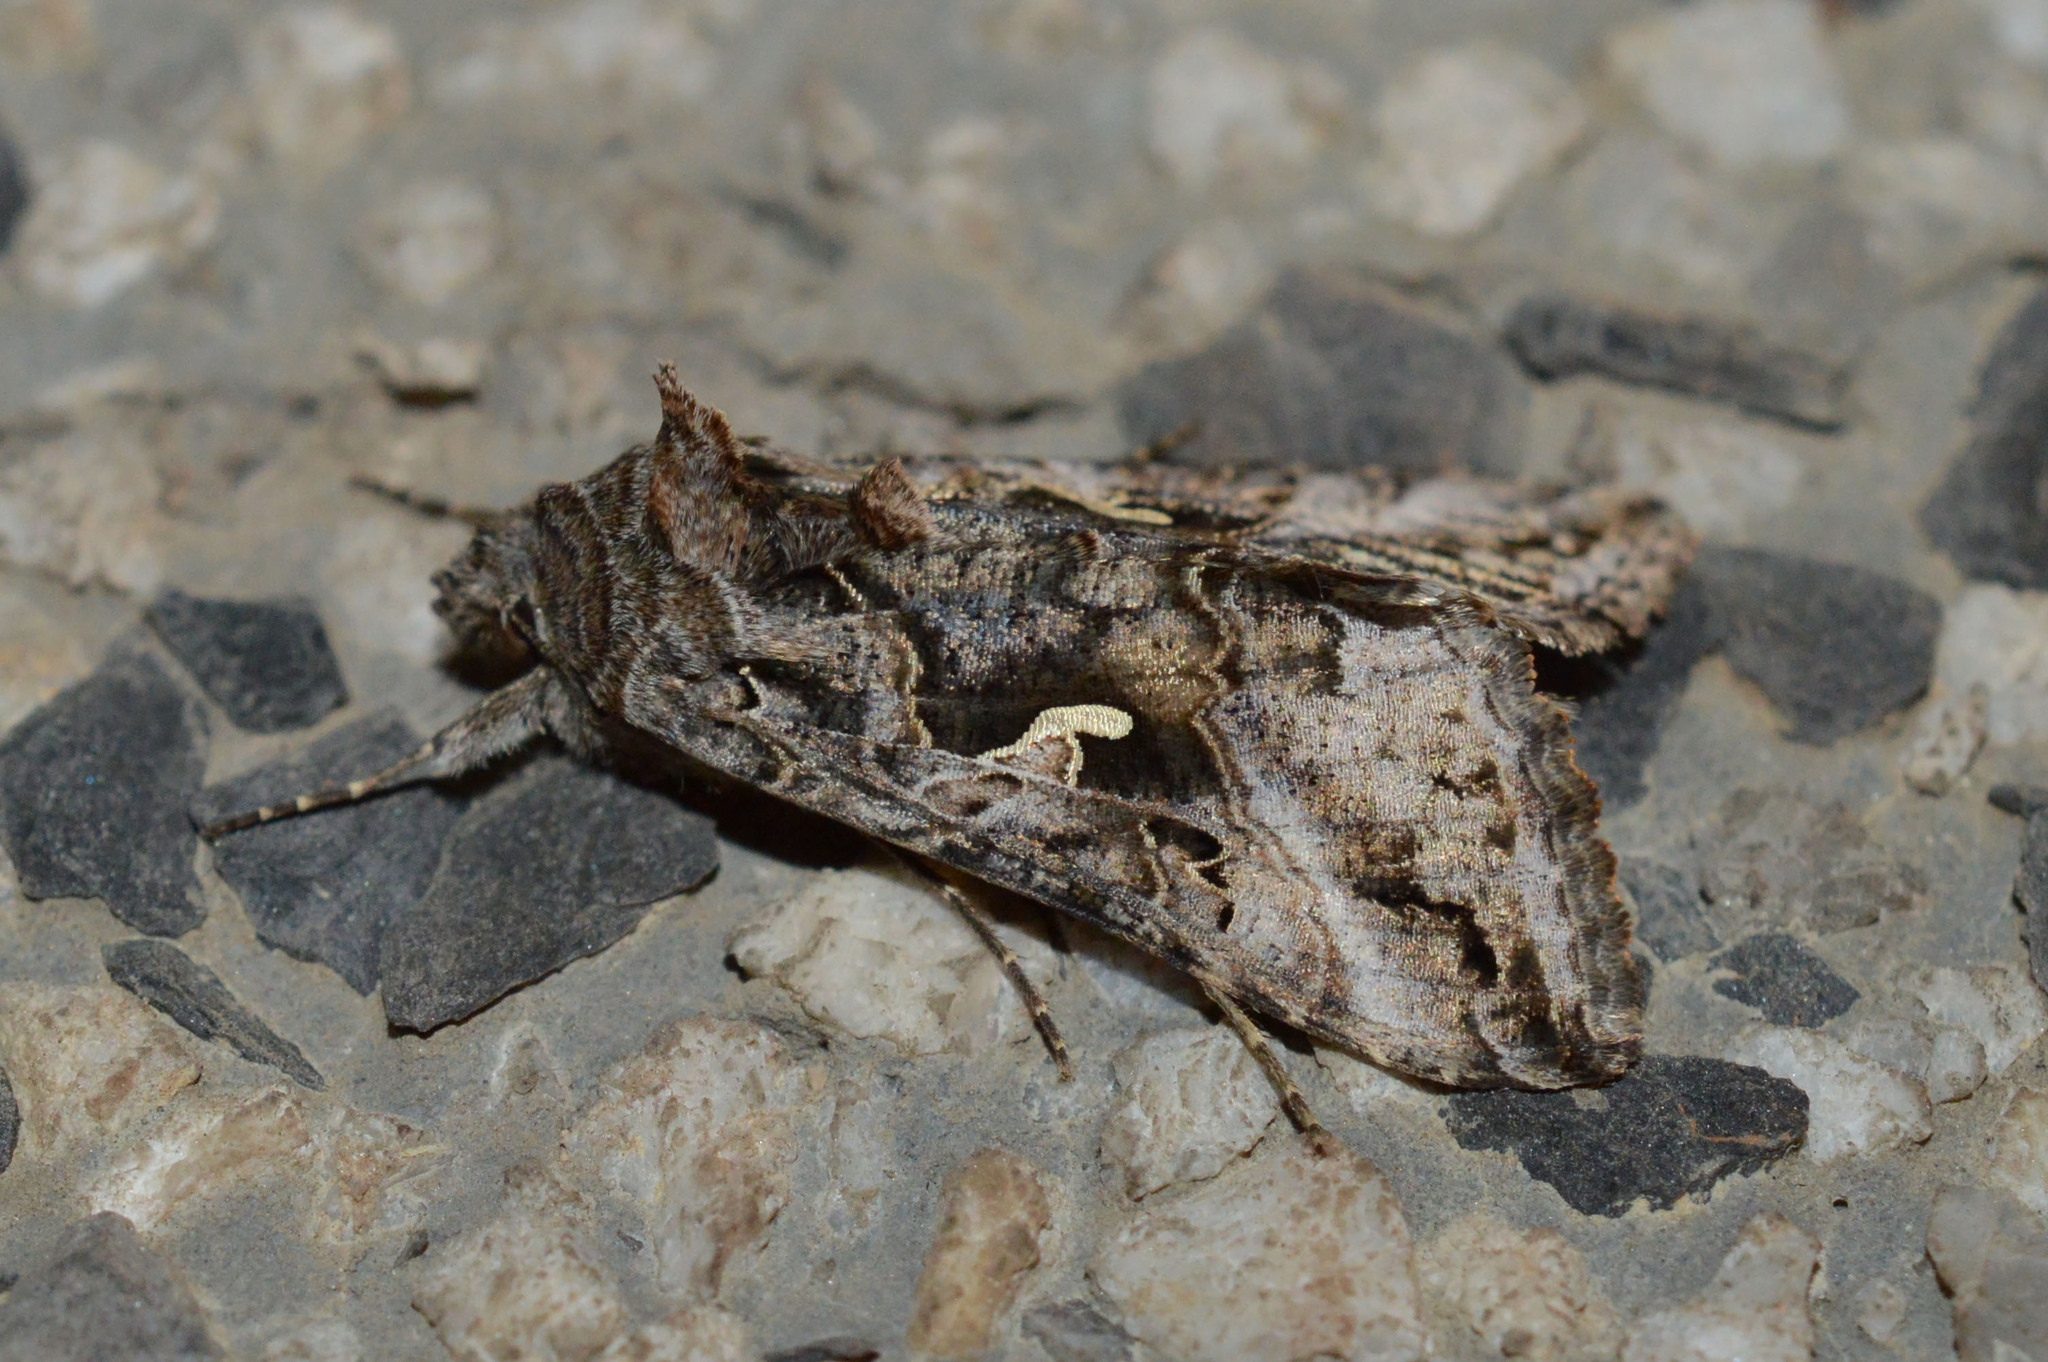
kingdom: Animalia
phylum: Arthropoda
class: Insecta
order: Lepidoptera
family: Noctuidae
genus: Autographa
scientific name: Autographa gamma
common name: Silver y
